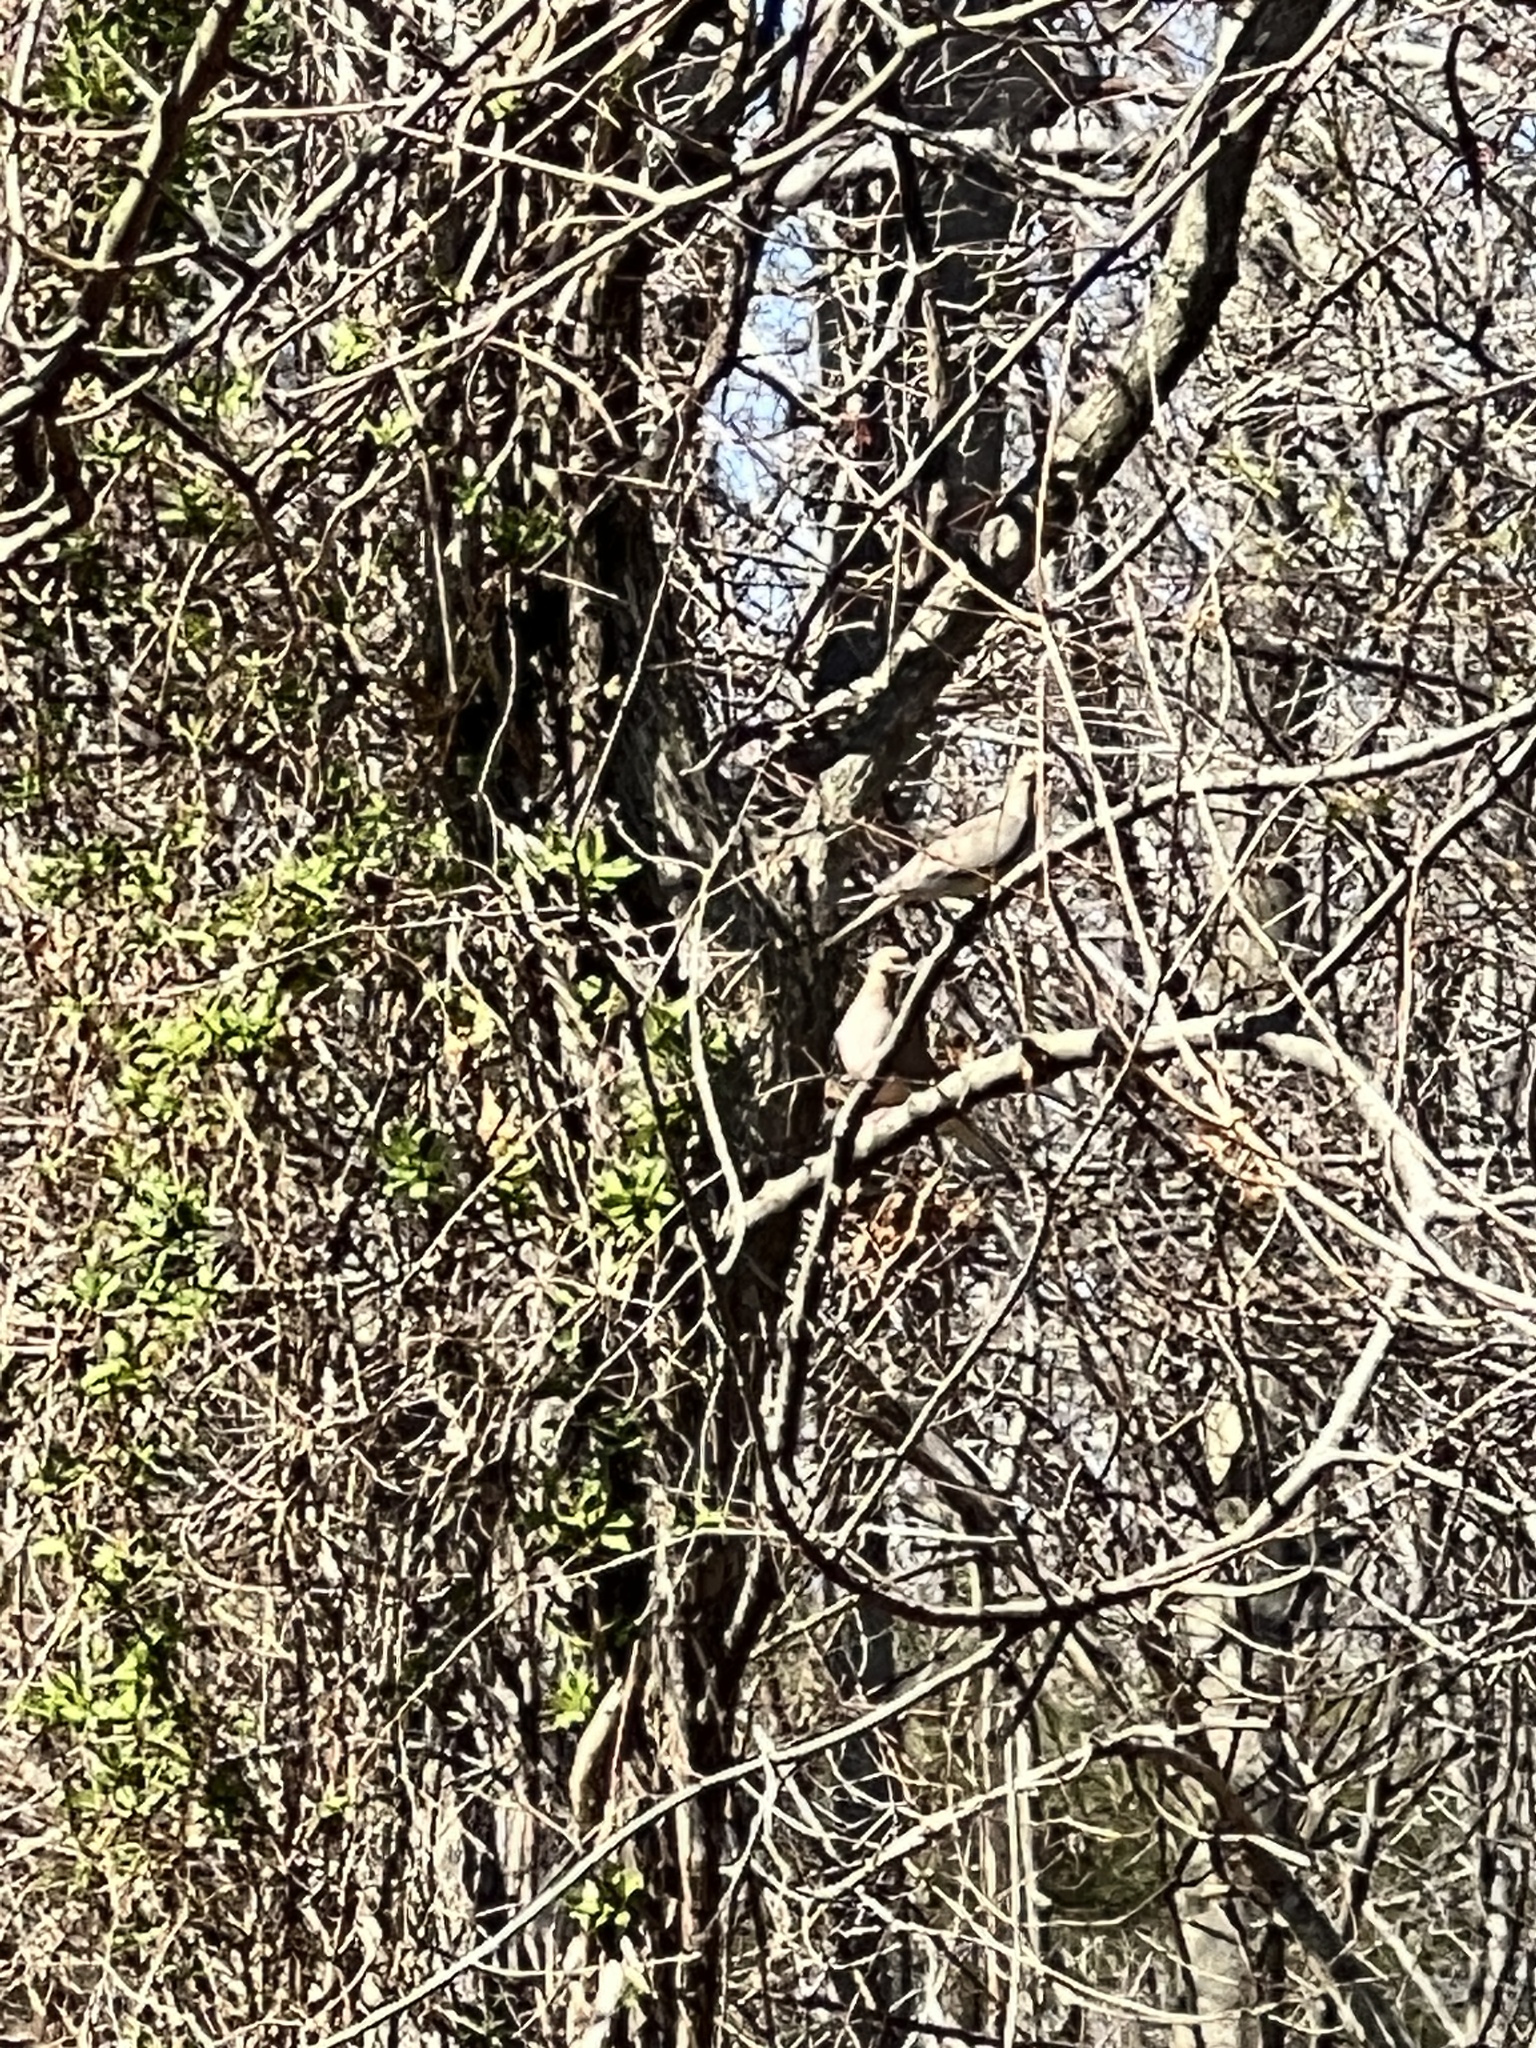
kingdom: Animalia
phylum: Chordata
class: Aves
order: Columbiformes
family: Columbidae
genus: Zenaida
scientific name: Zenaida macroura
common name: Mourning dove
